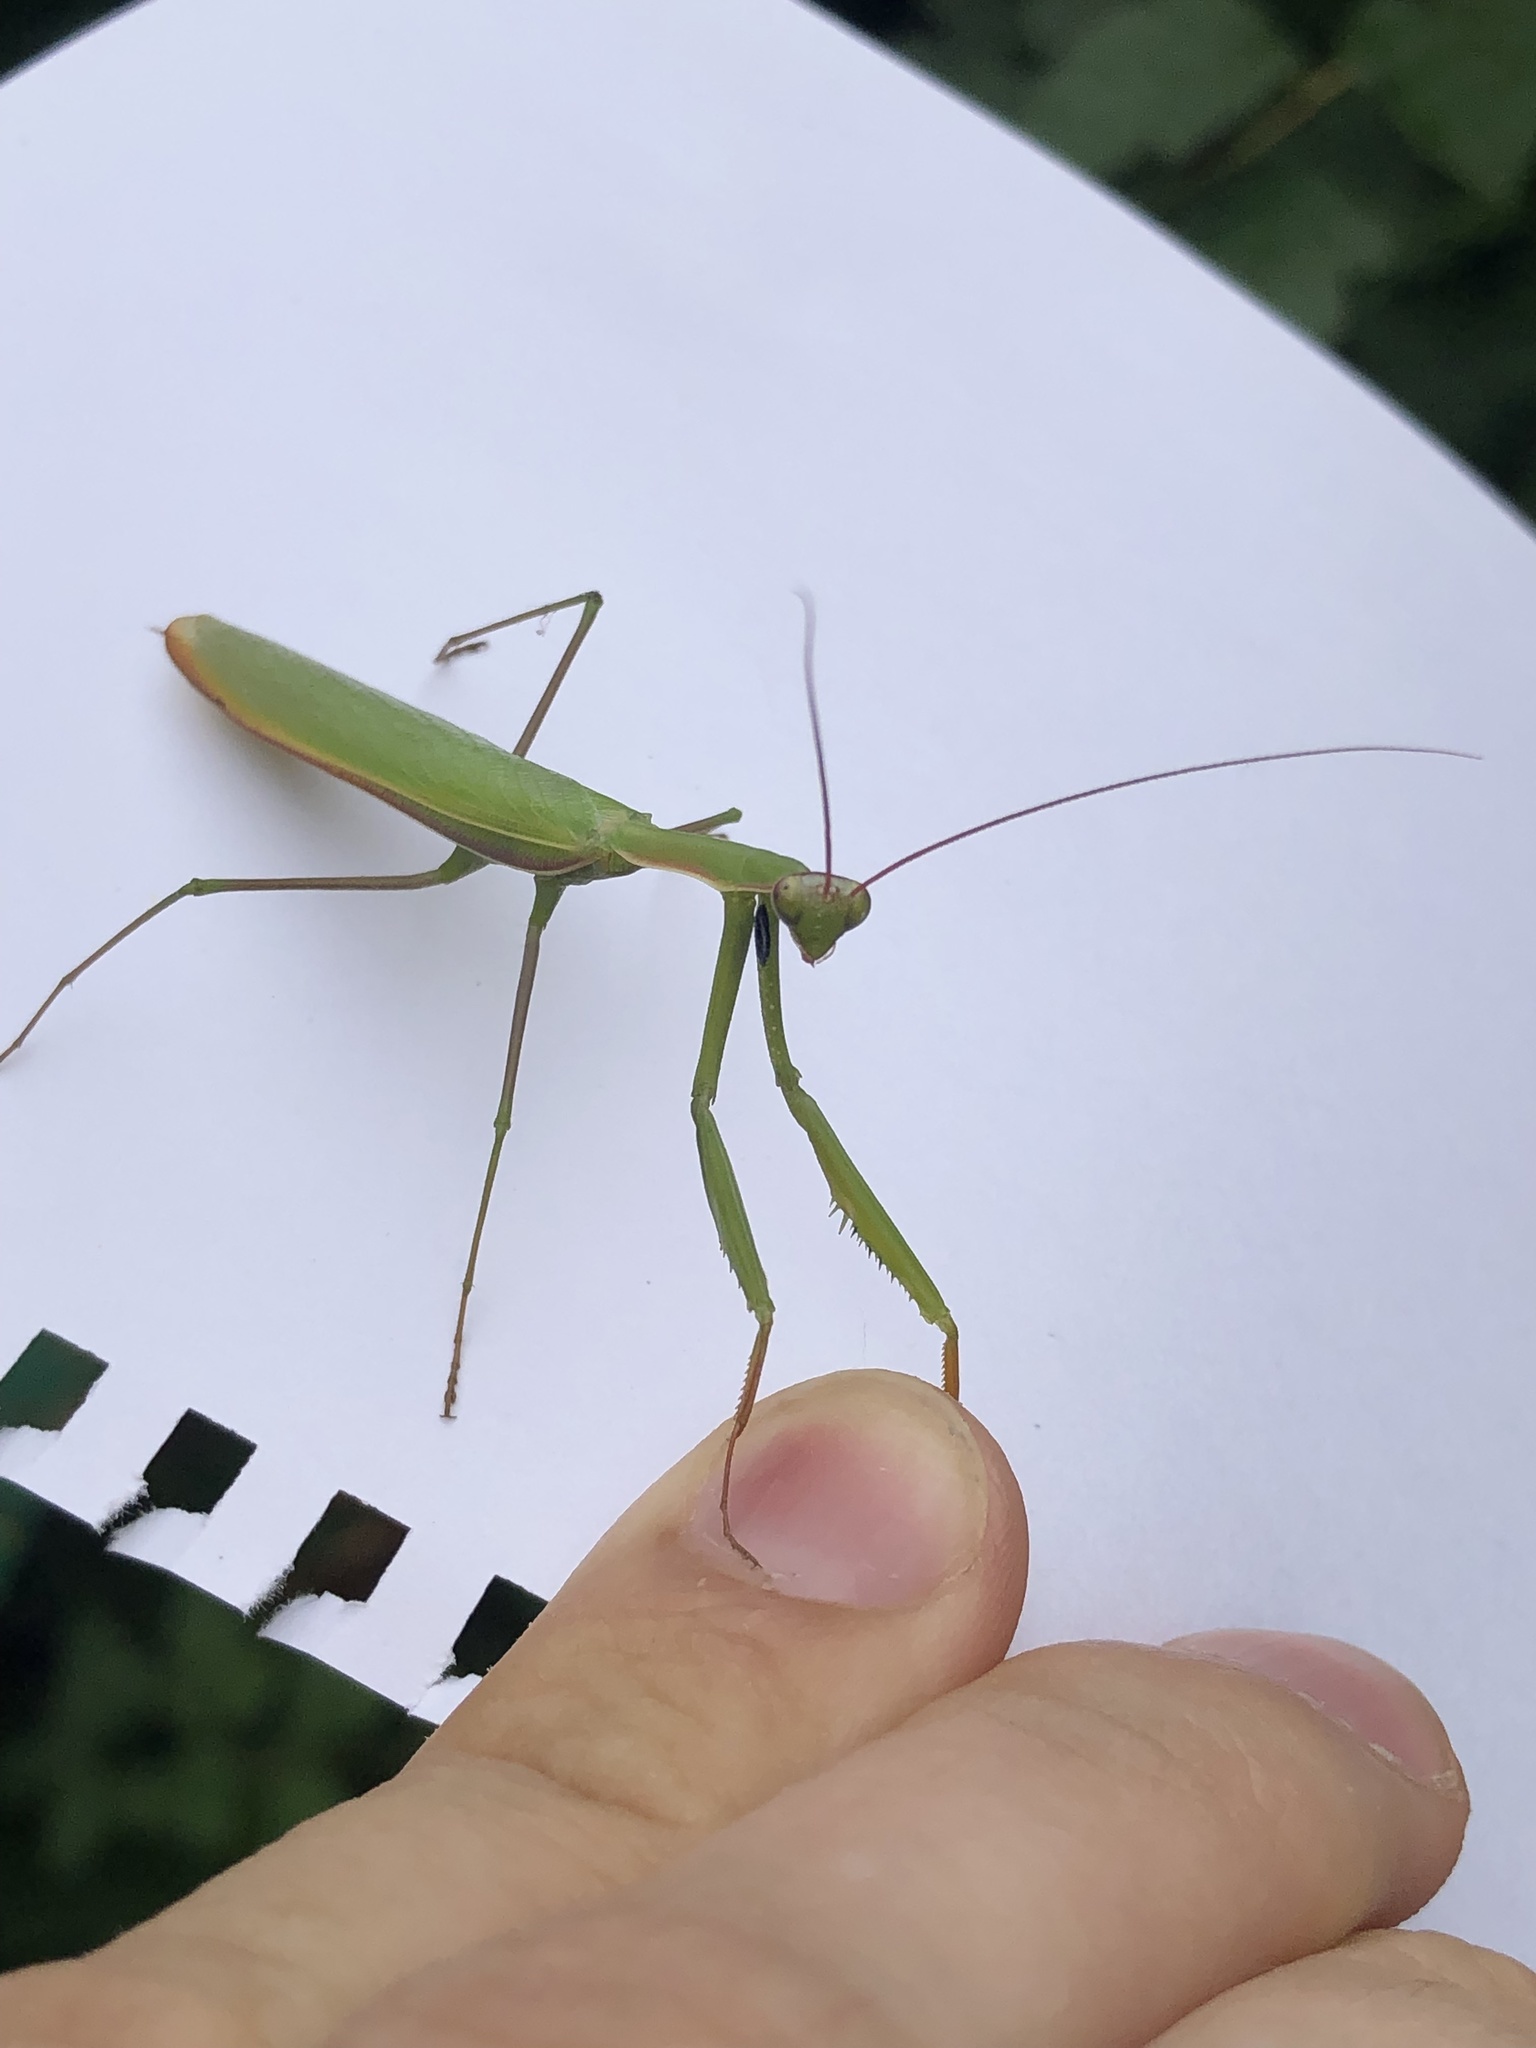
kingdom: Animalia
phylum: Arthropoda
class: Insecta
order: Mantodea
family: Mantidae
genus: Mantis
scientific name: Mantis religiosa
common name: Praying mantis
